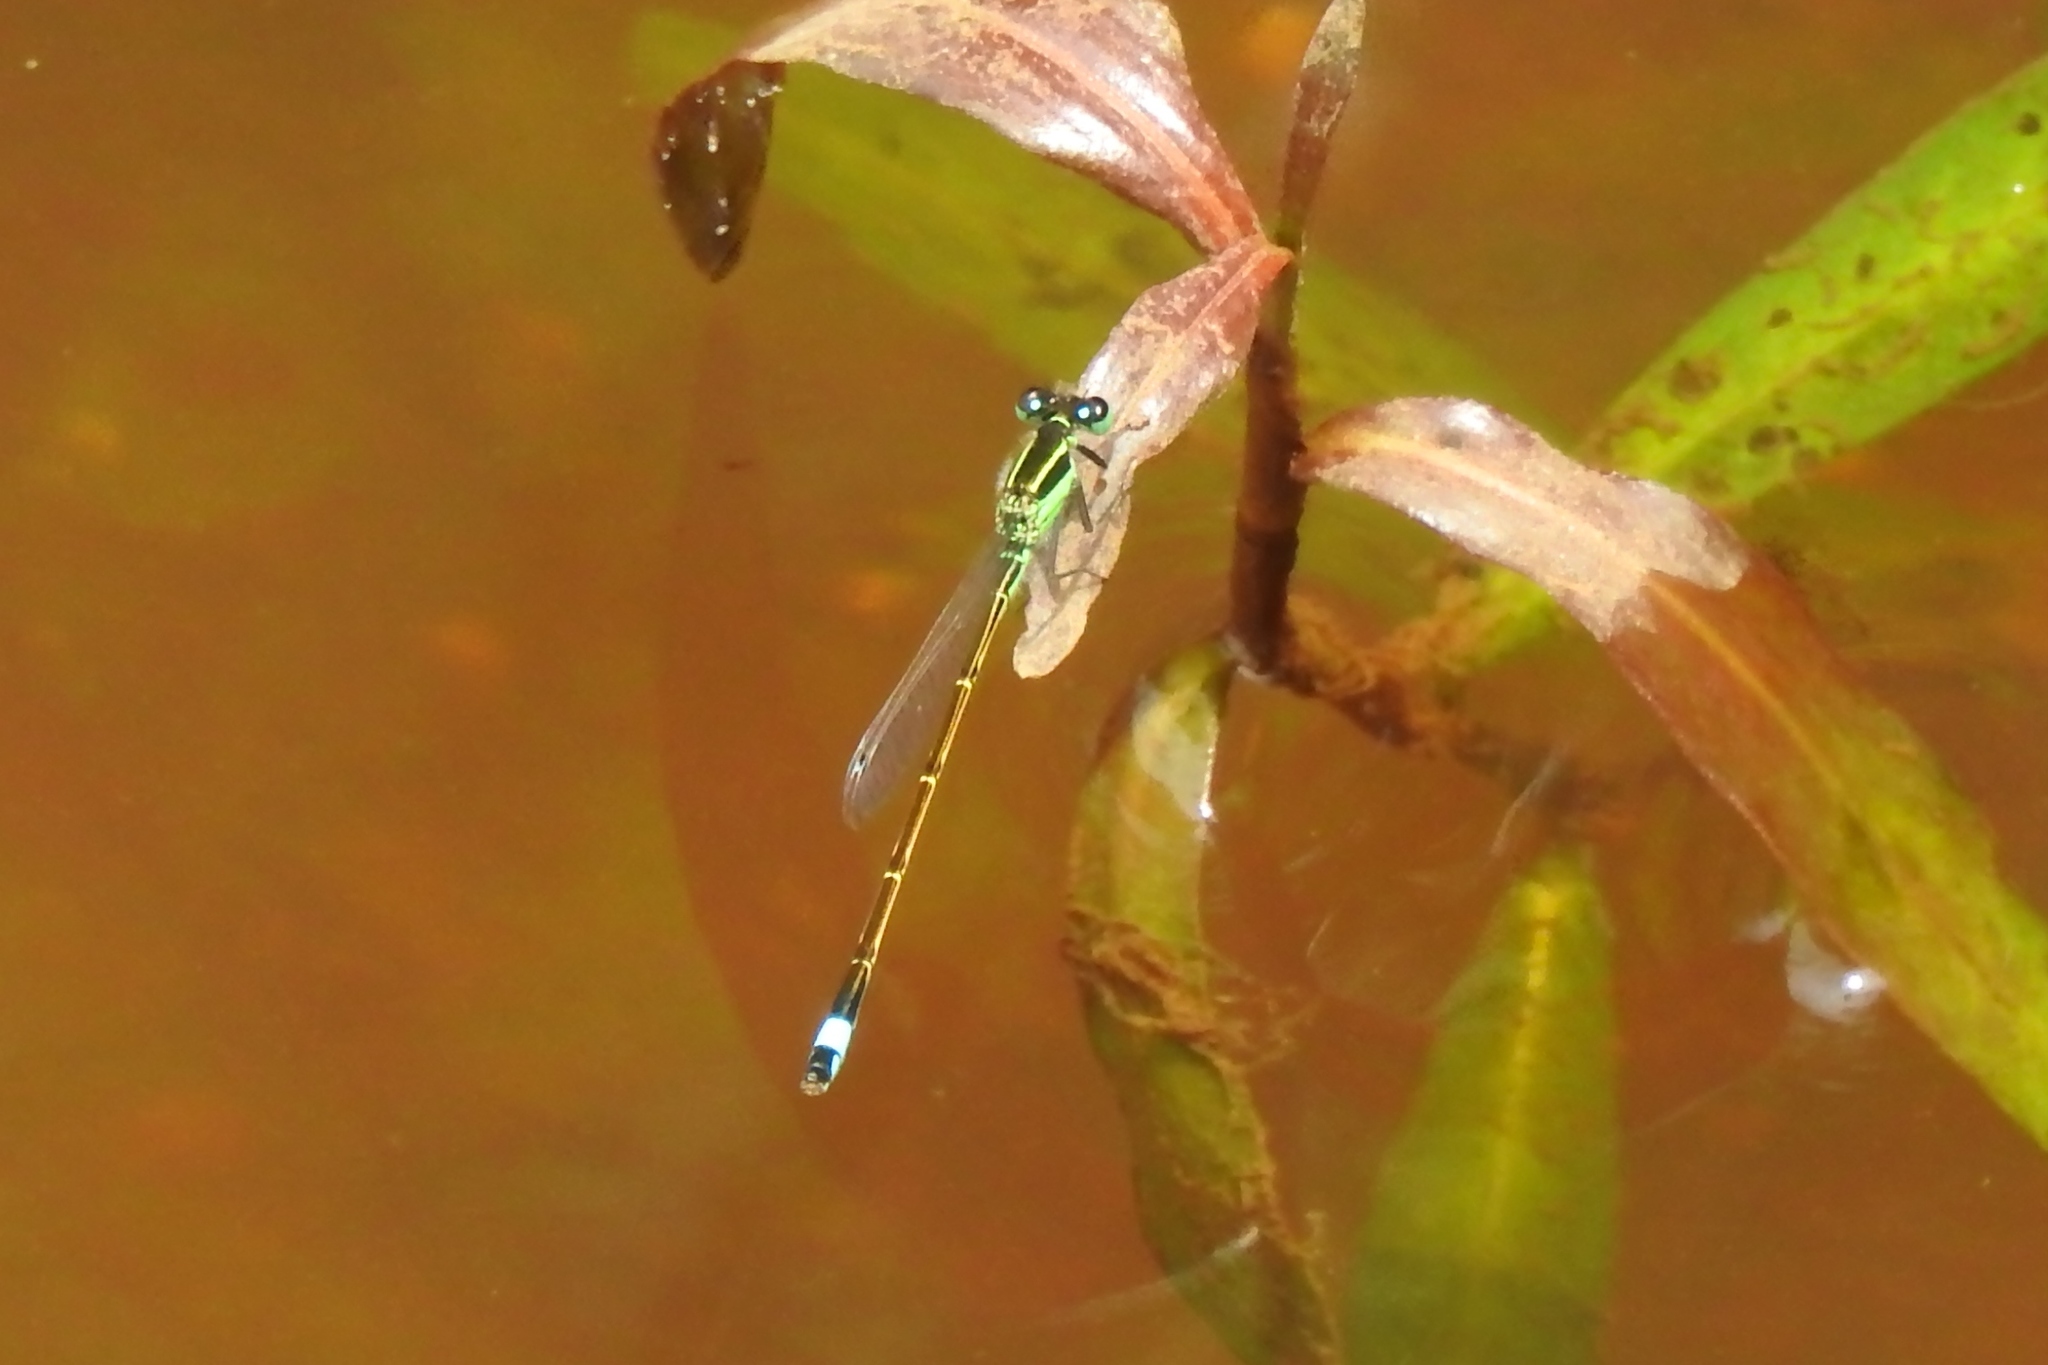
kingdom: Animalia
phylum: Arthropoda
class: Insecta
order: Odonata
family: Coenagrionidae
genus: Ischnura
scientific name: Ischnura ramburii
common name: Rambur's forktail
